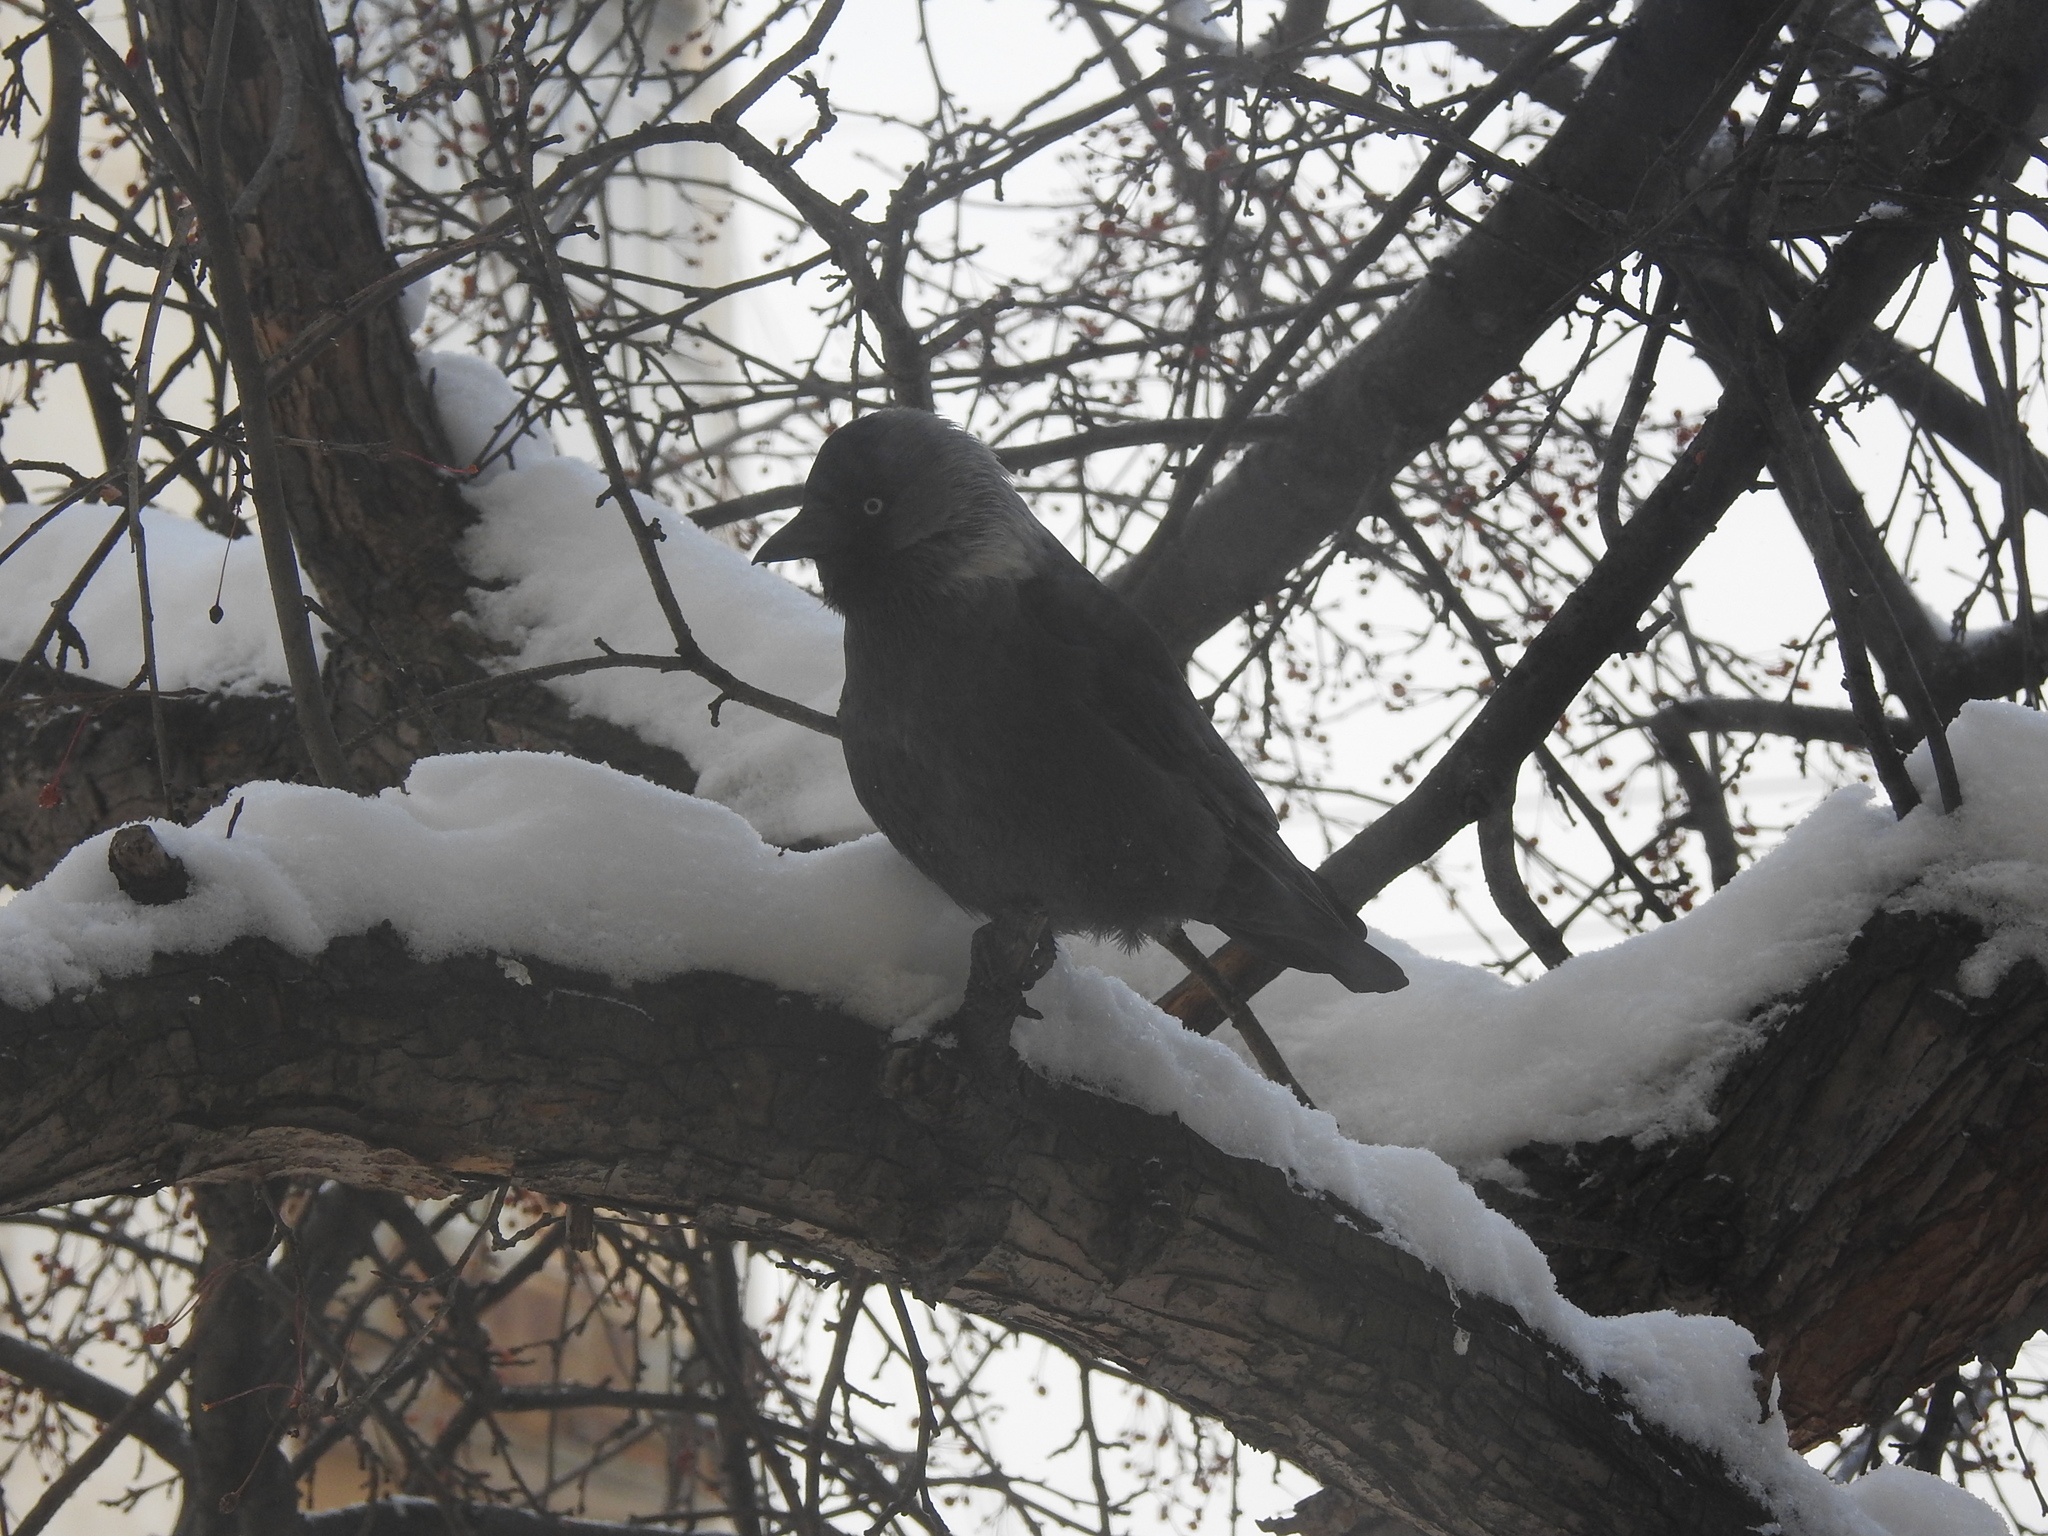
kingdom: Animalia
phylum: Chordata
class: Aves
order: Passeriformes
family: Corvidae
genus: Coloeus
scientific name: Coloeus monedula
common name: Western jackdaw
